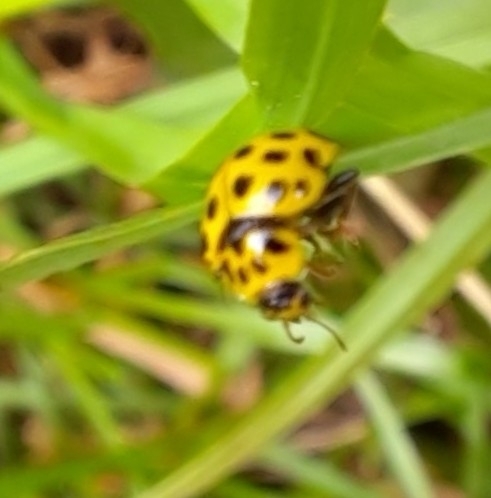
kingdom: Animalia
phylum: Arthropoda
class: Insecta
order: Coleoptera
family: Coccinellidae
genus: Psyllobora
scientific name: Psyllobora vigintiduopunctata
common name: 22-spot ladybird
